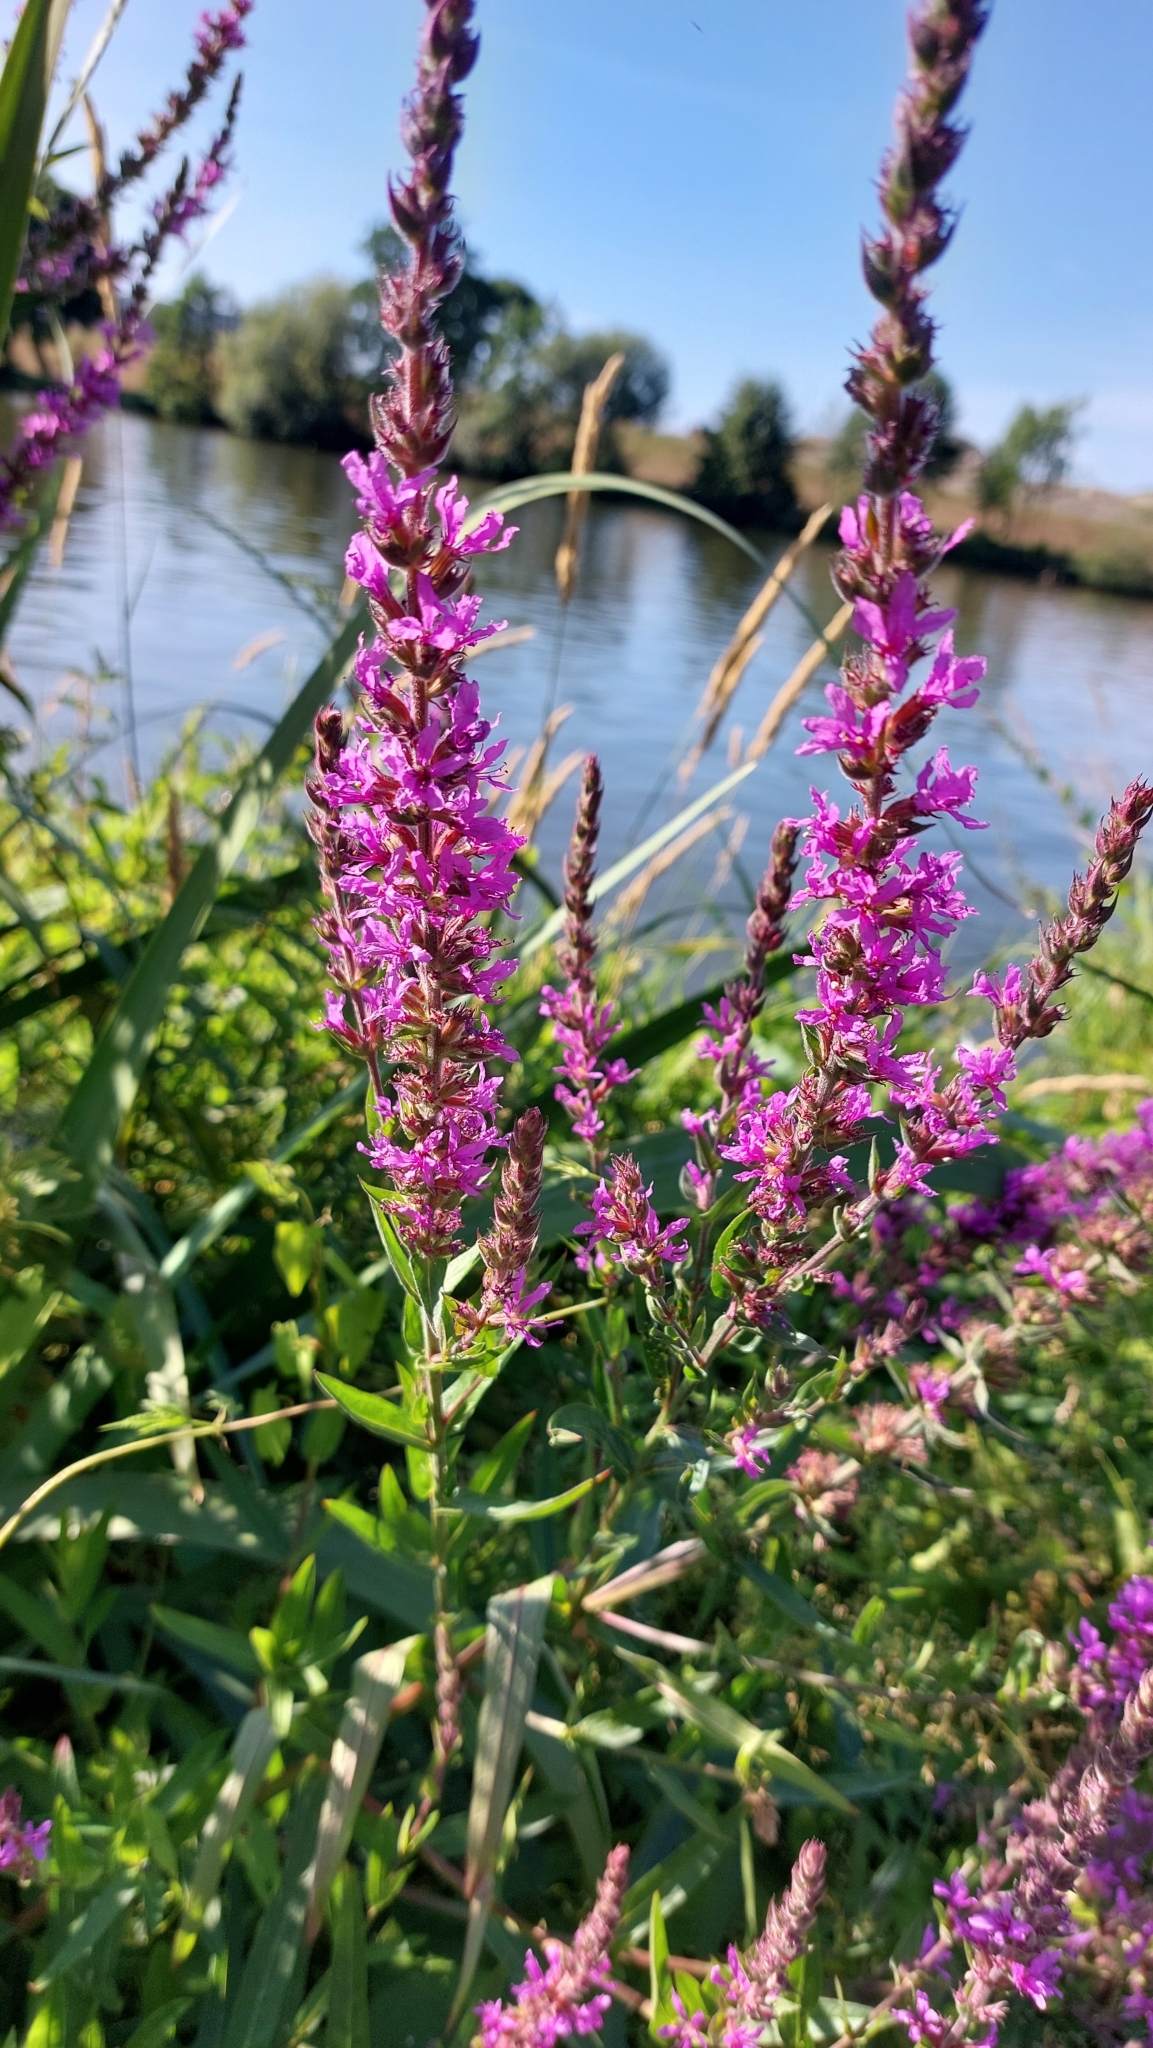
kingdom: Plantae
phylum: Tracheophyta
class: Magnoliopsida
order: Myrtales
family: Lythraceae
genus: Lythrum
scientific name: Lythrum salicaria
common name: Purple loosestrife
